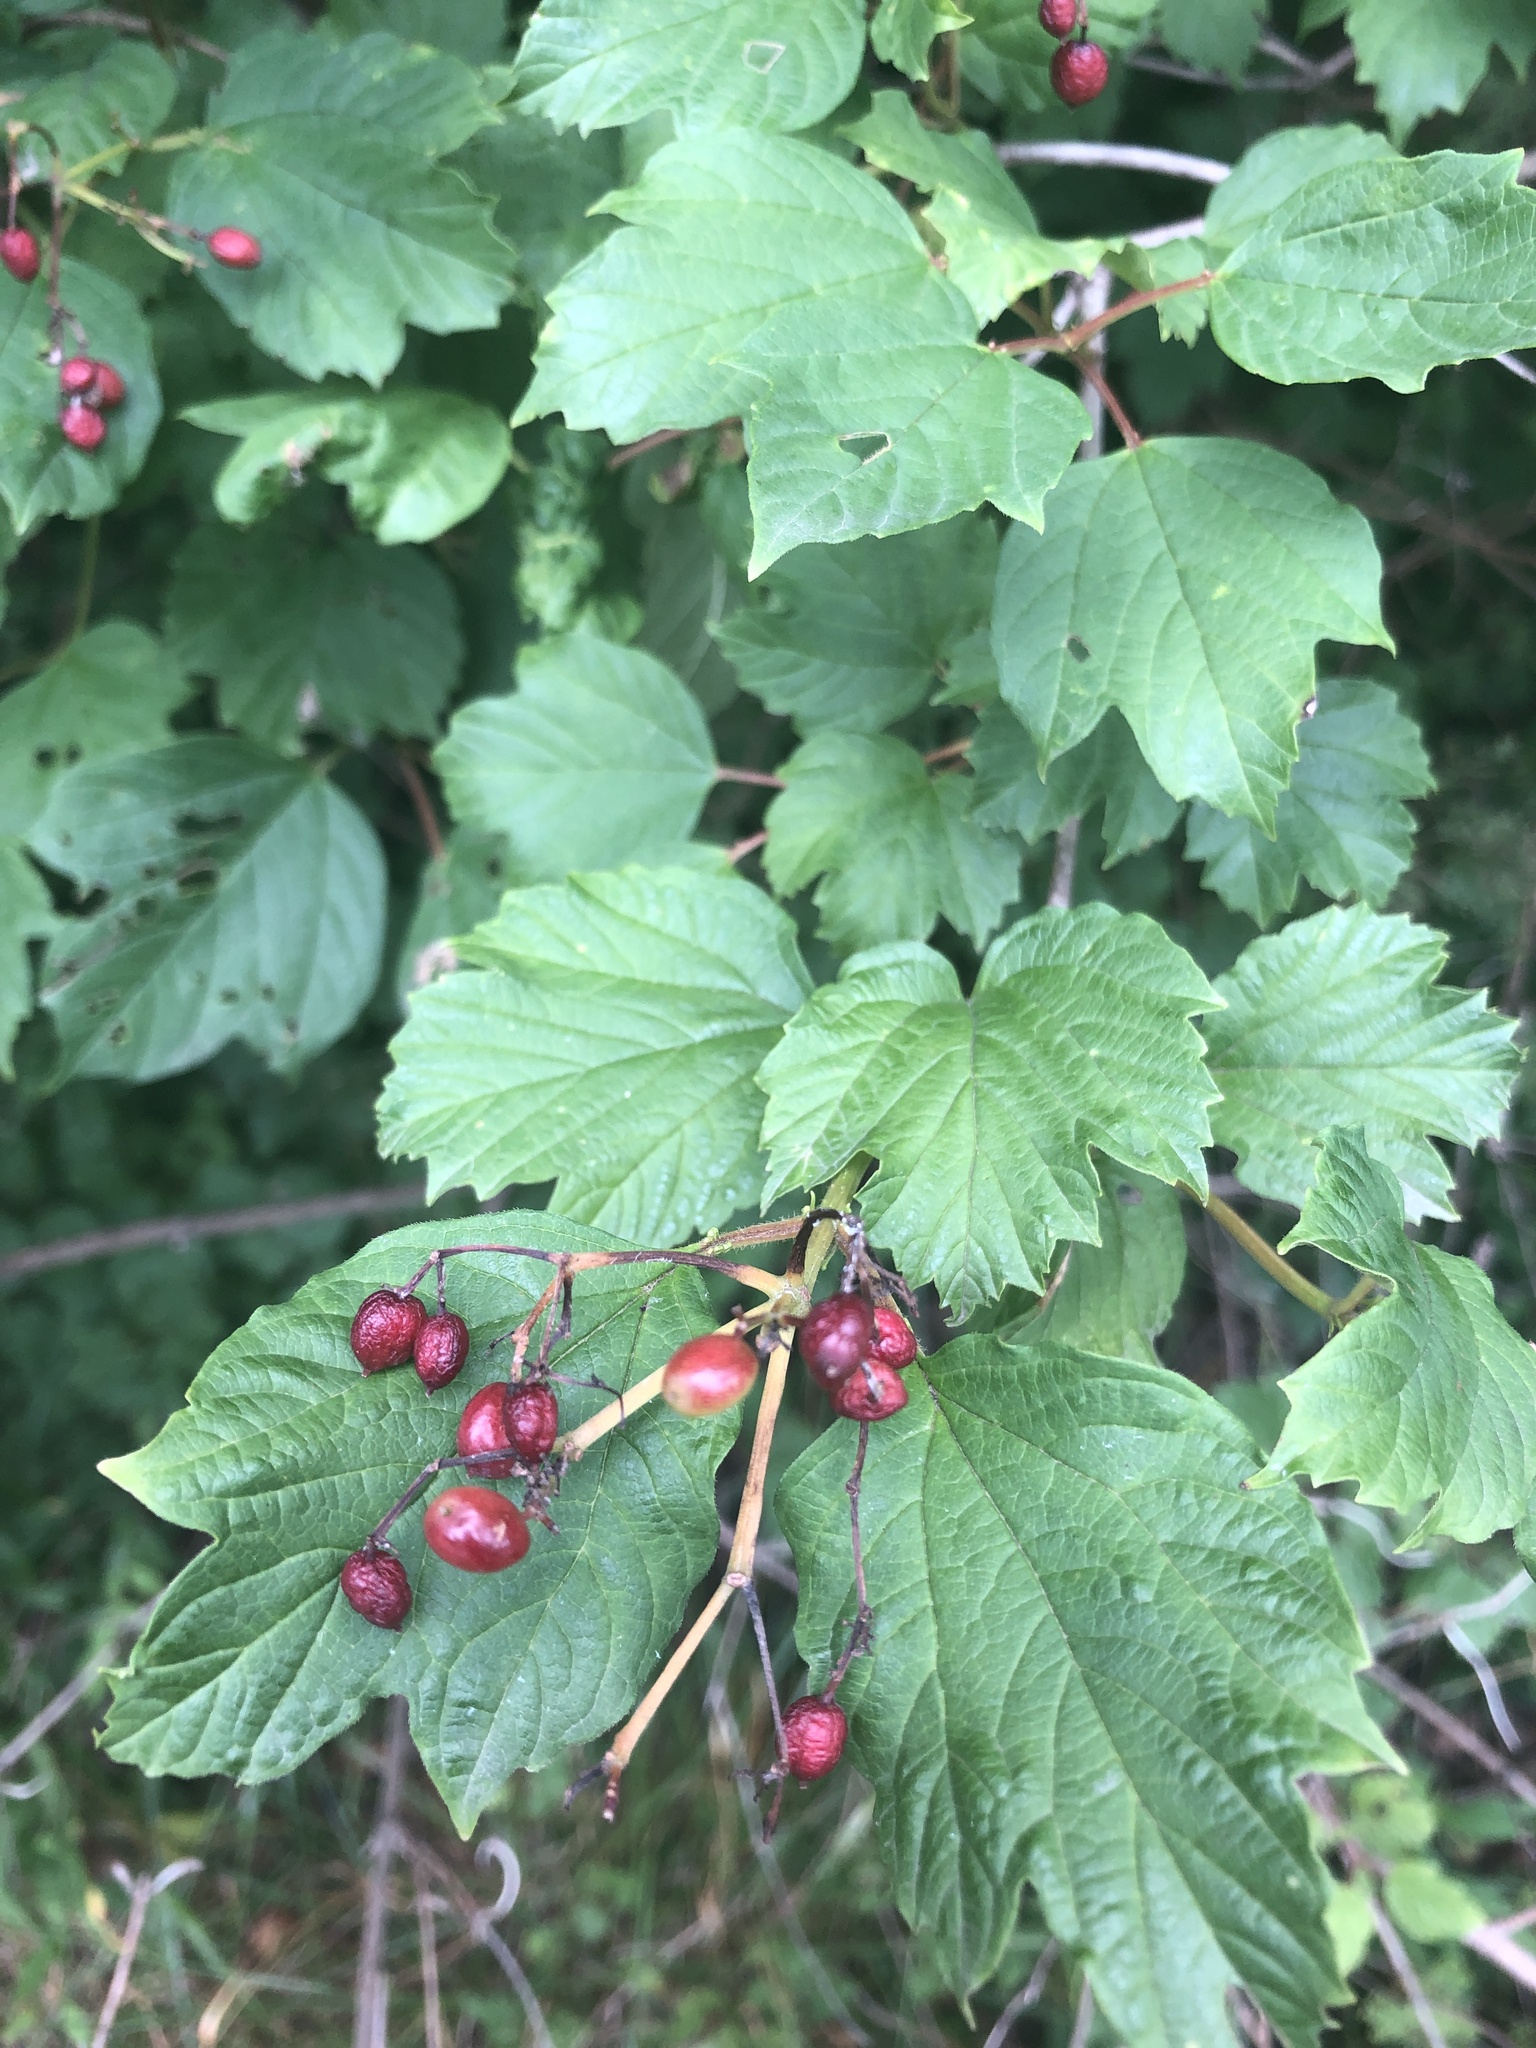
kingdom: Plantae
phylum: Tracheophyta
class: Magnoliopsida
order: Dipsacales
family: Viburnaceae
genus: Viburnum
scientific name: Viburnum opulus
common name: Guelder-rose
